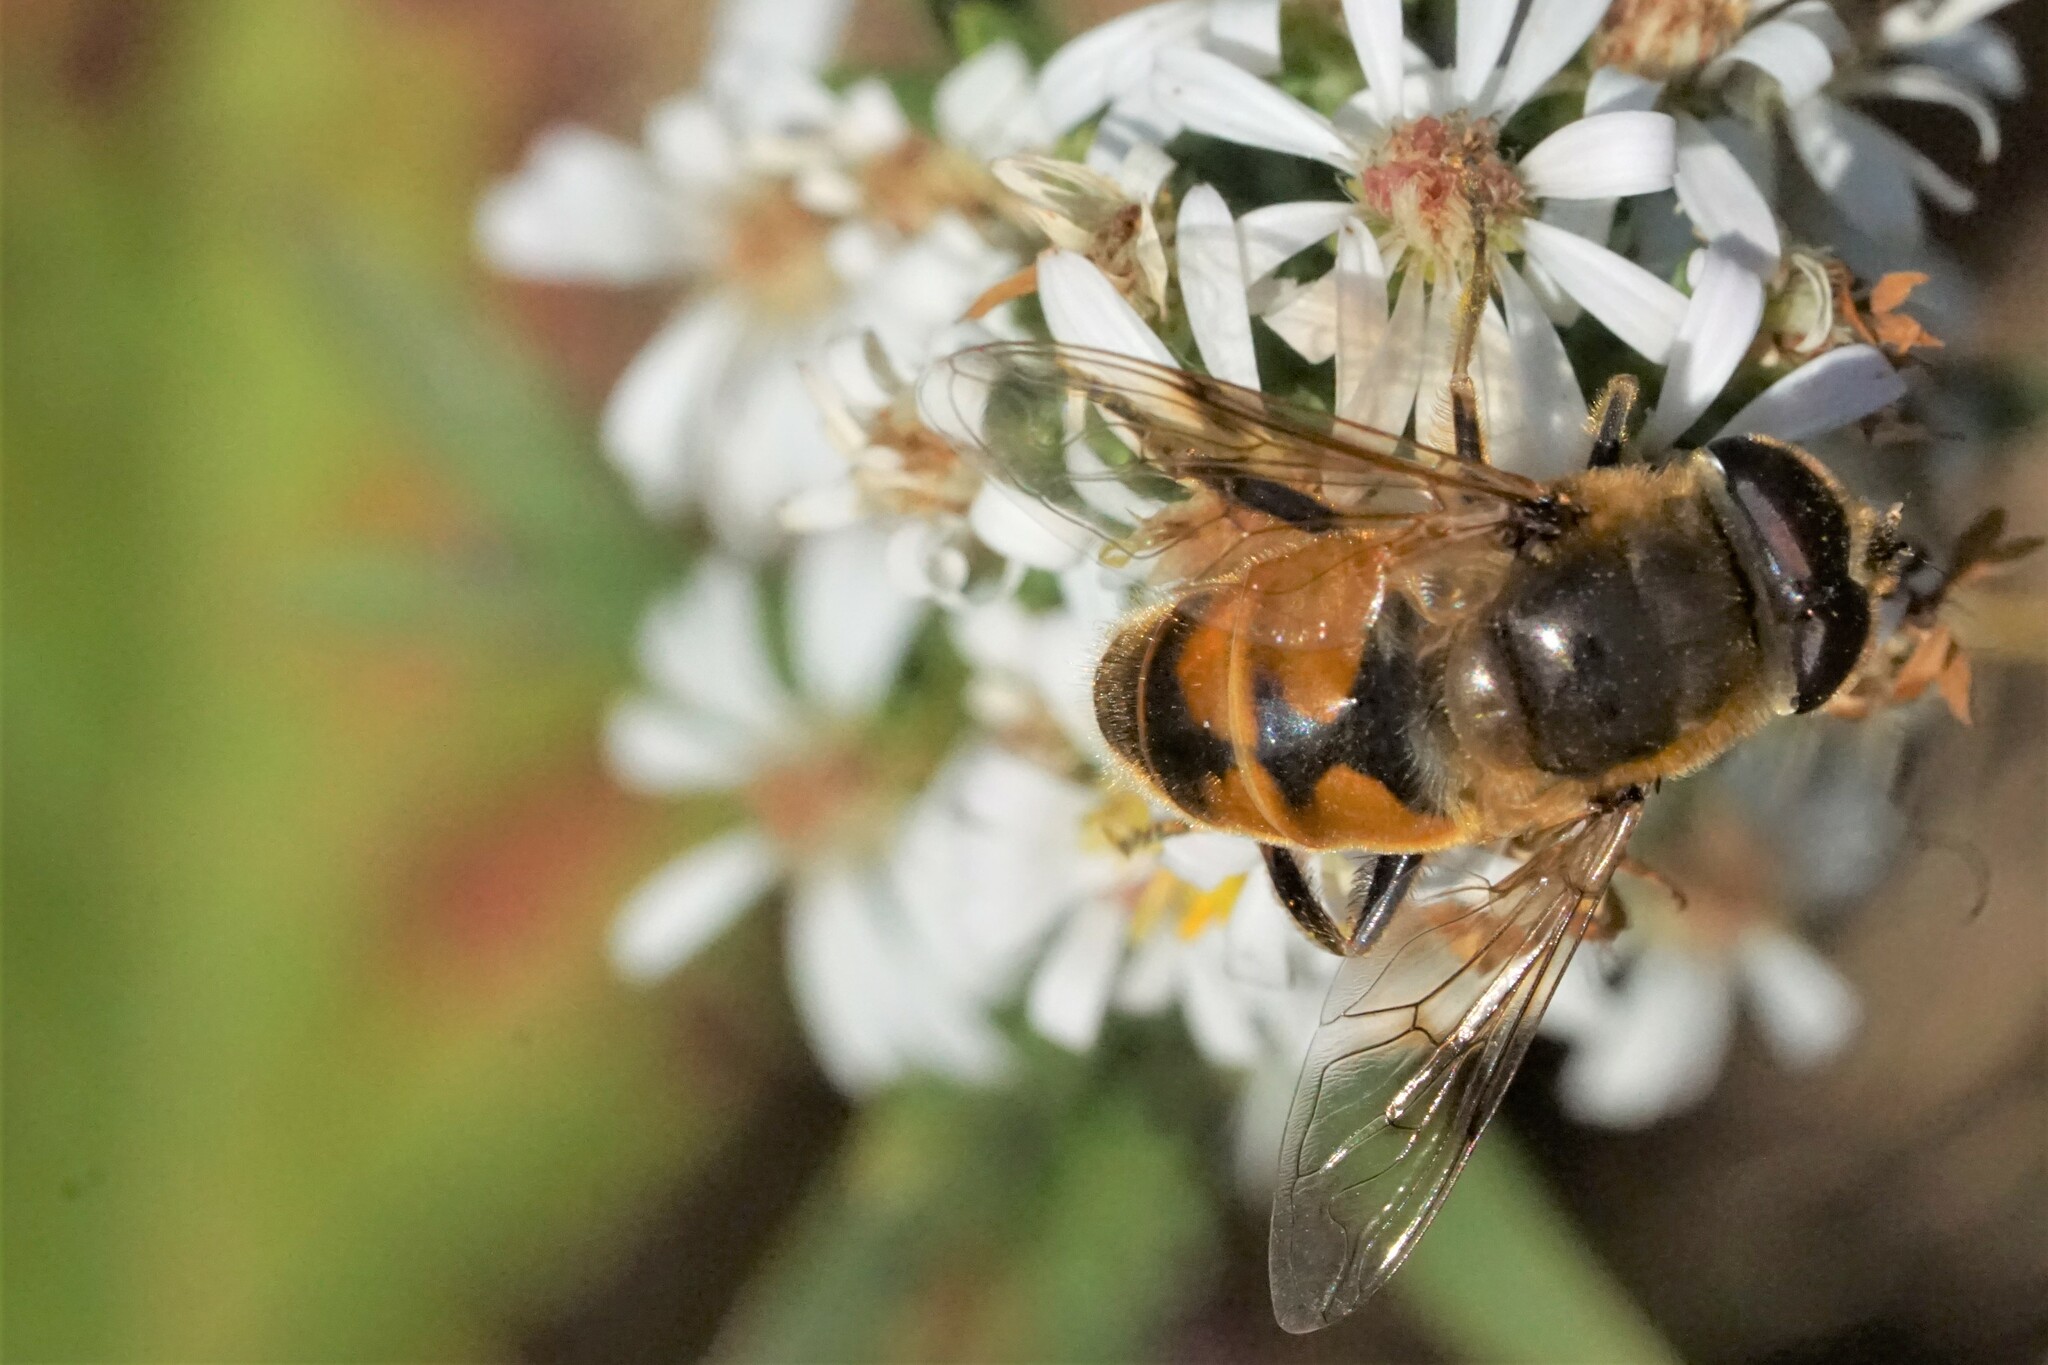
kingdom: Animalia
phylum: Arthropoda
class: Insecta
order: Diptera
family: Syrphidae
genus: Eristalis
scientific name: Eristalis tenax
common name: Drone fly
